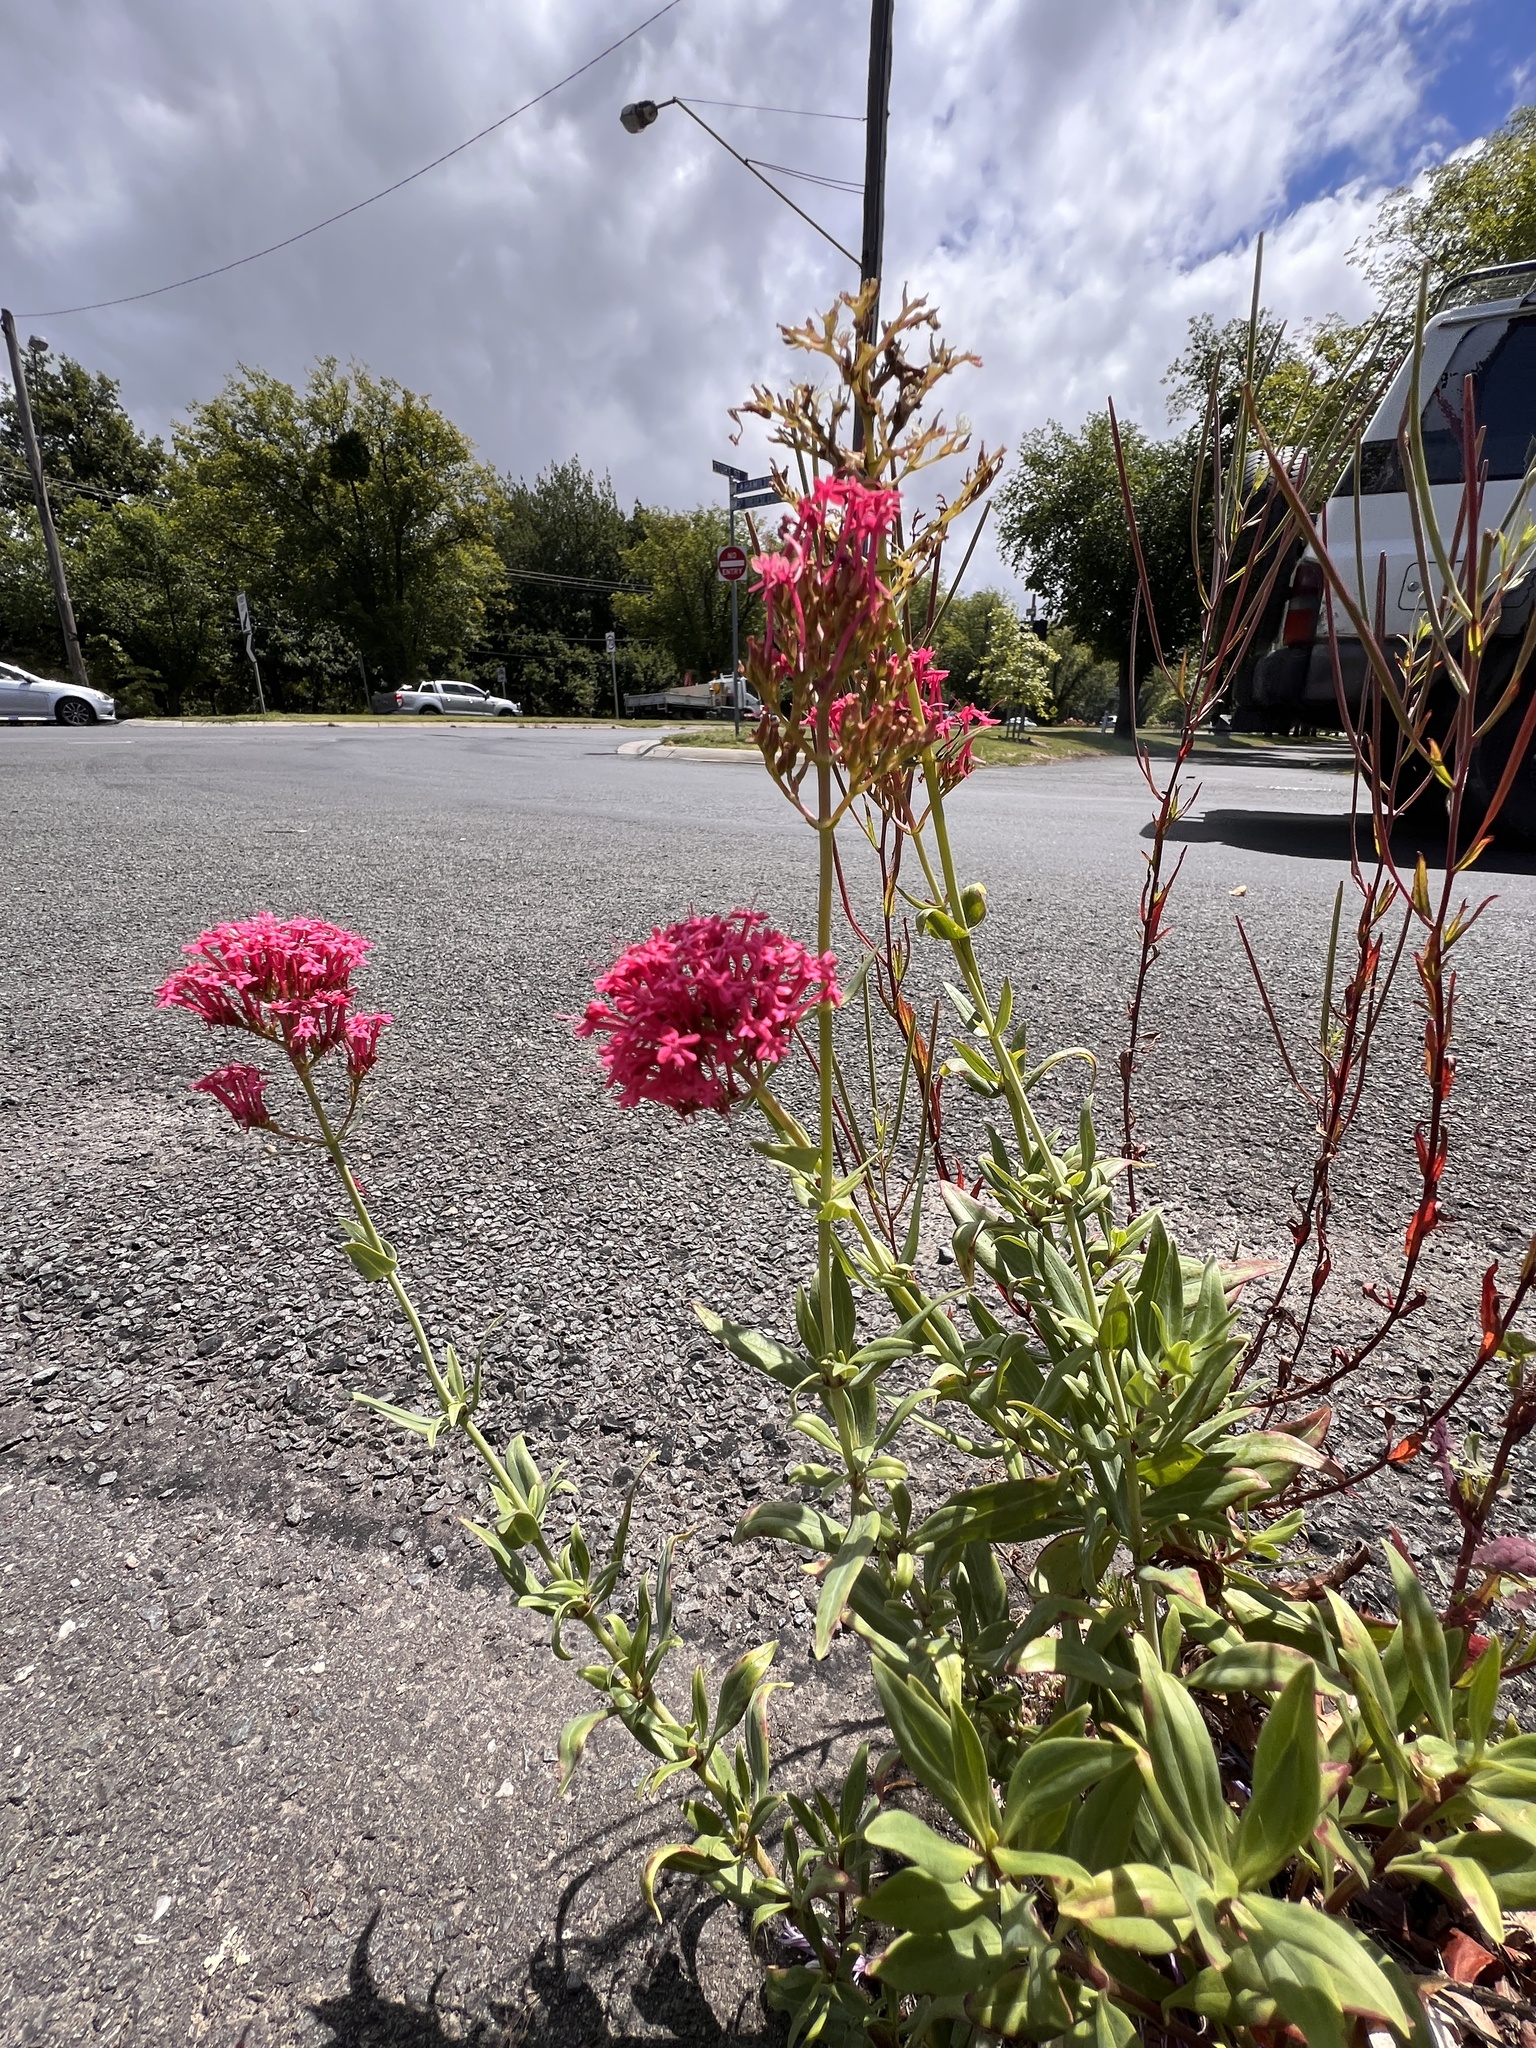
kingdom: Plantae
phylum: Tracheophyta
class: Magnoliopsida
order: Dipsacales
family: Caprifoliaceae
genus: Centranthus
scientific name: Centranthus ruber
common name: Red valerian
